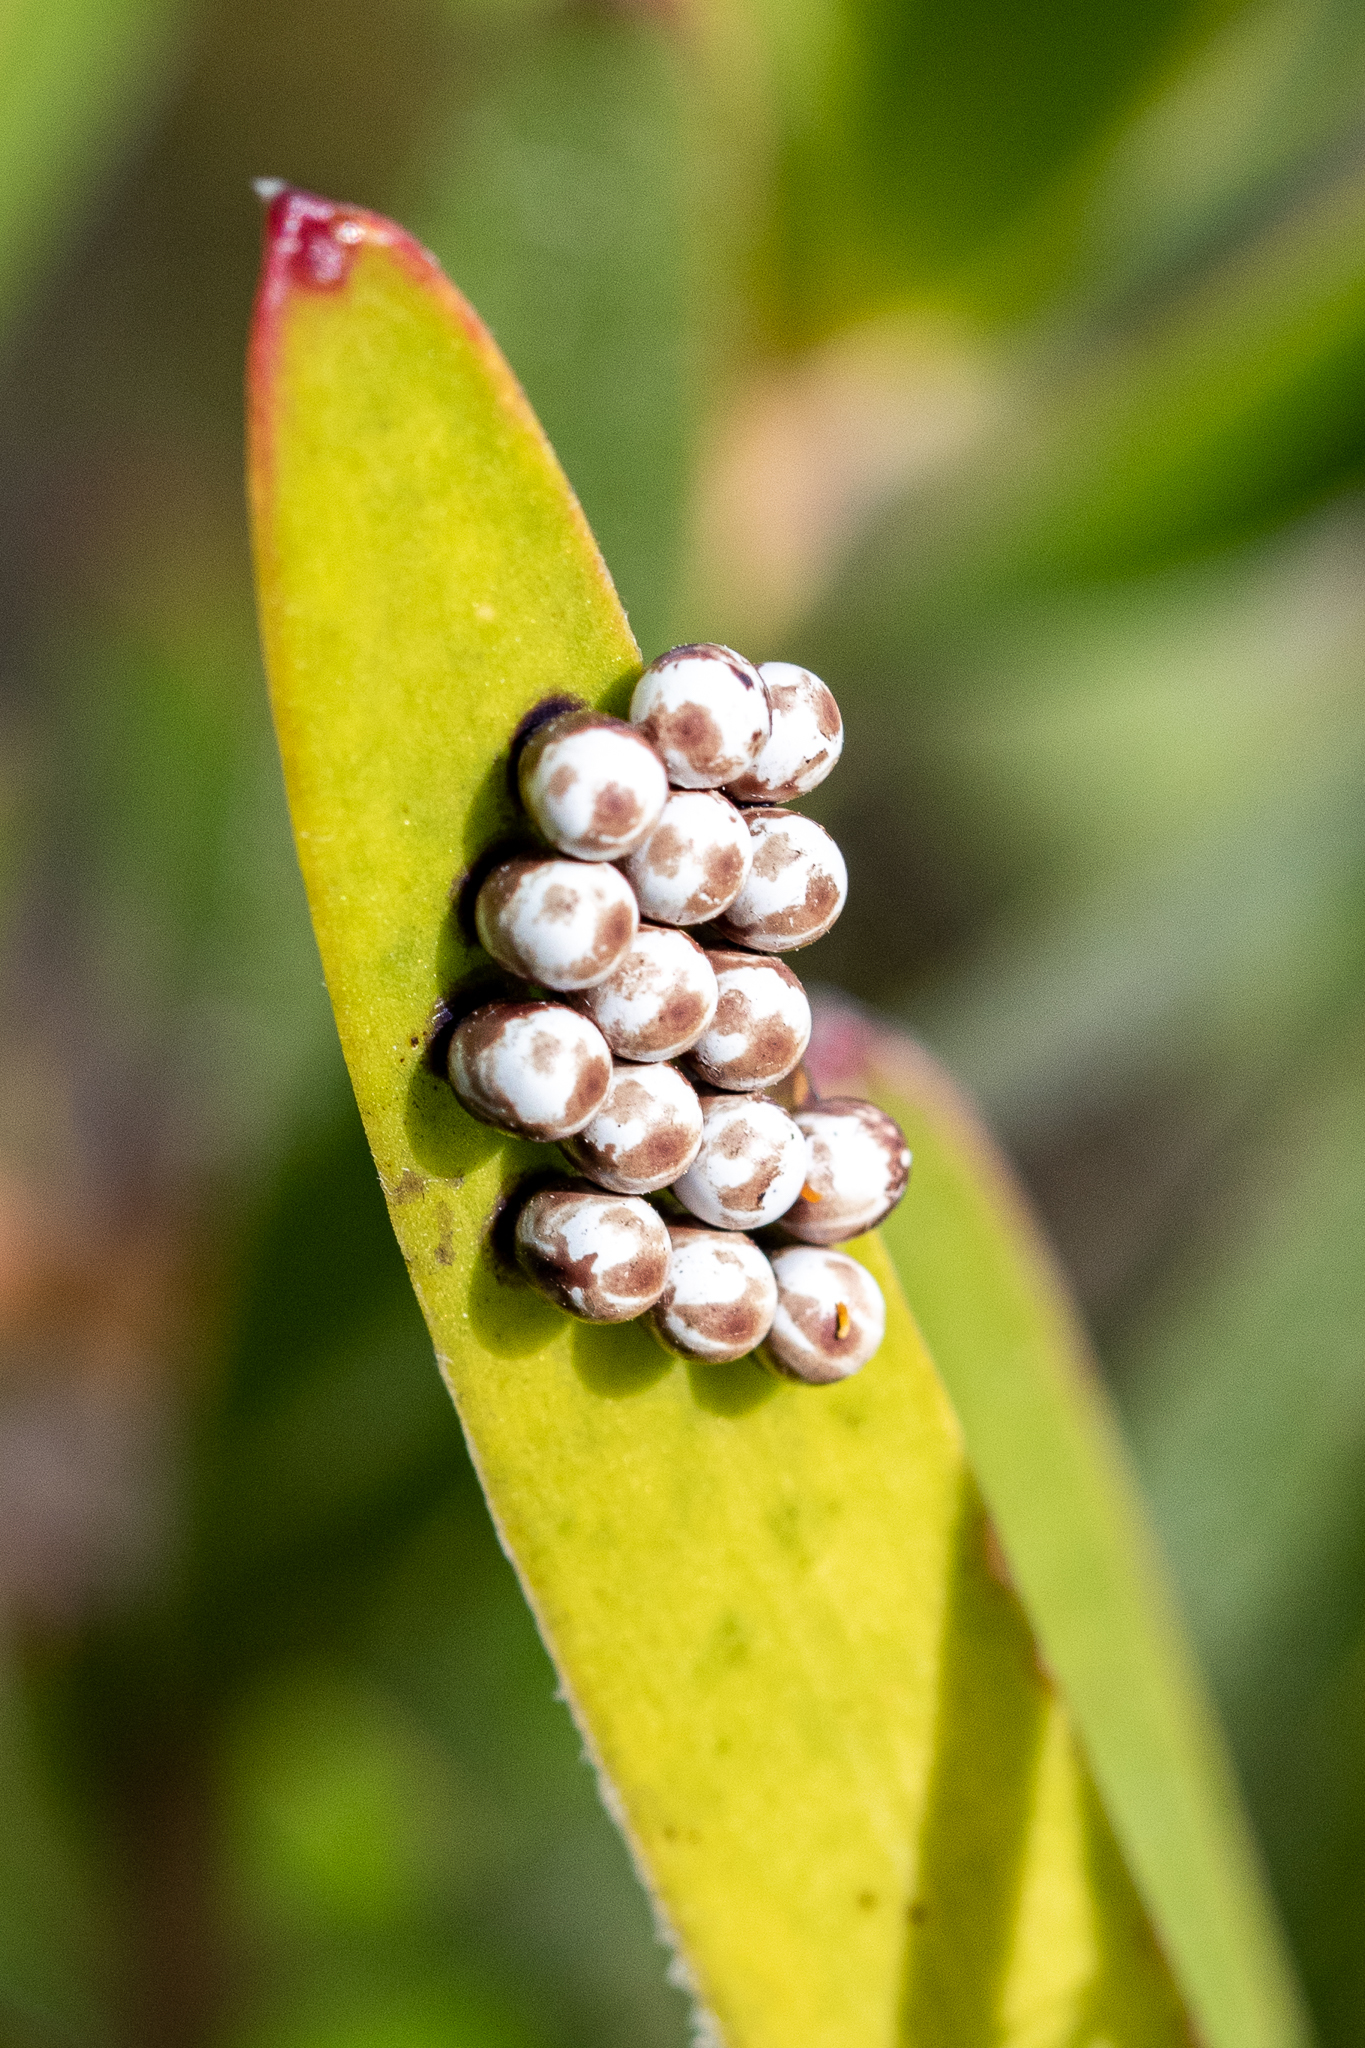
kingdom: Animalia
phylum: Arthropoda
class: Insecta
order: Lepidoptera
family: Saturniidae
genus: Nudaurelia
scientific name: Nudaurelia cytherea
